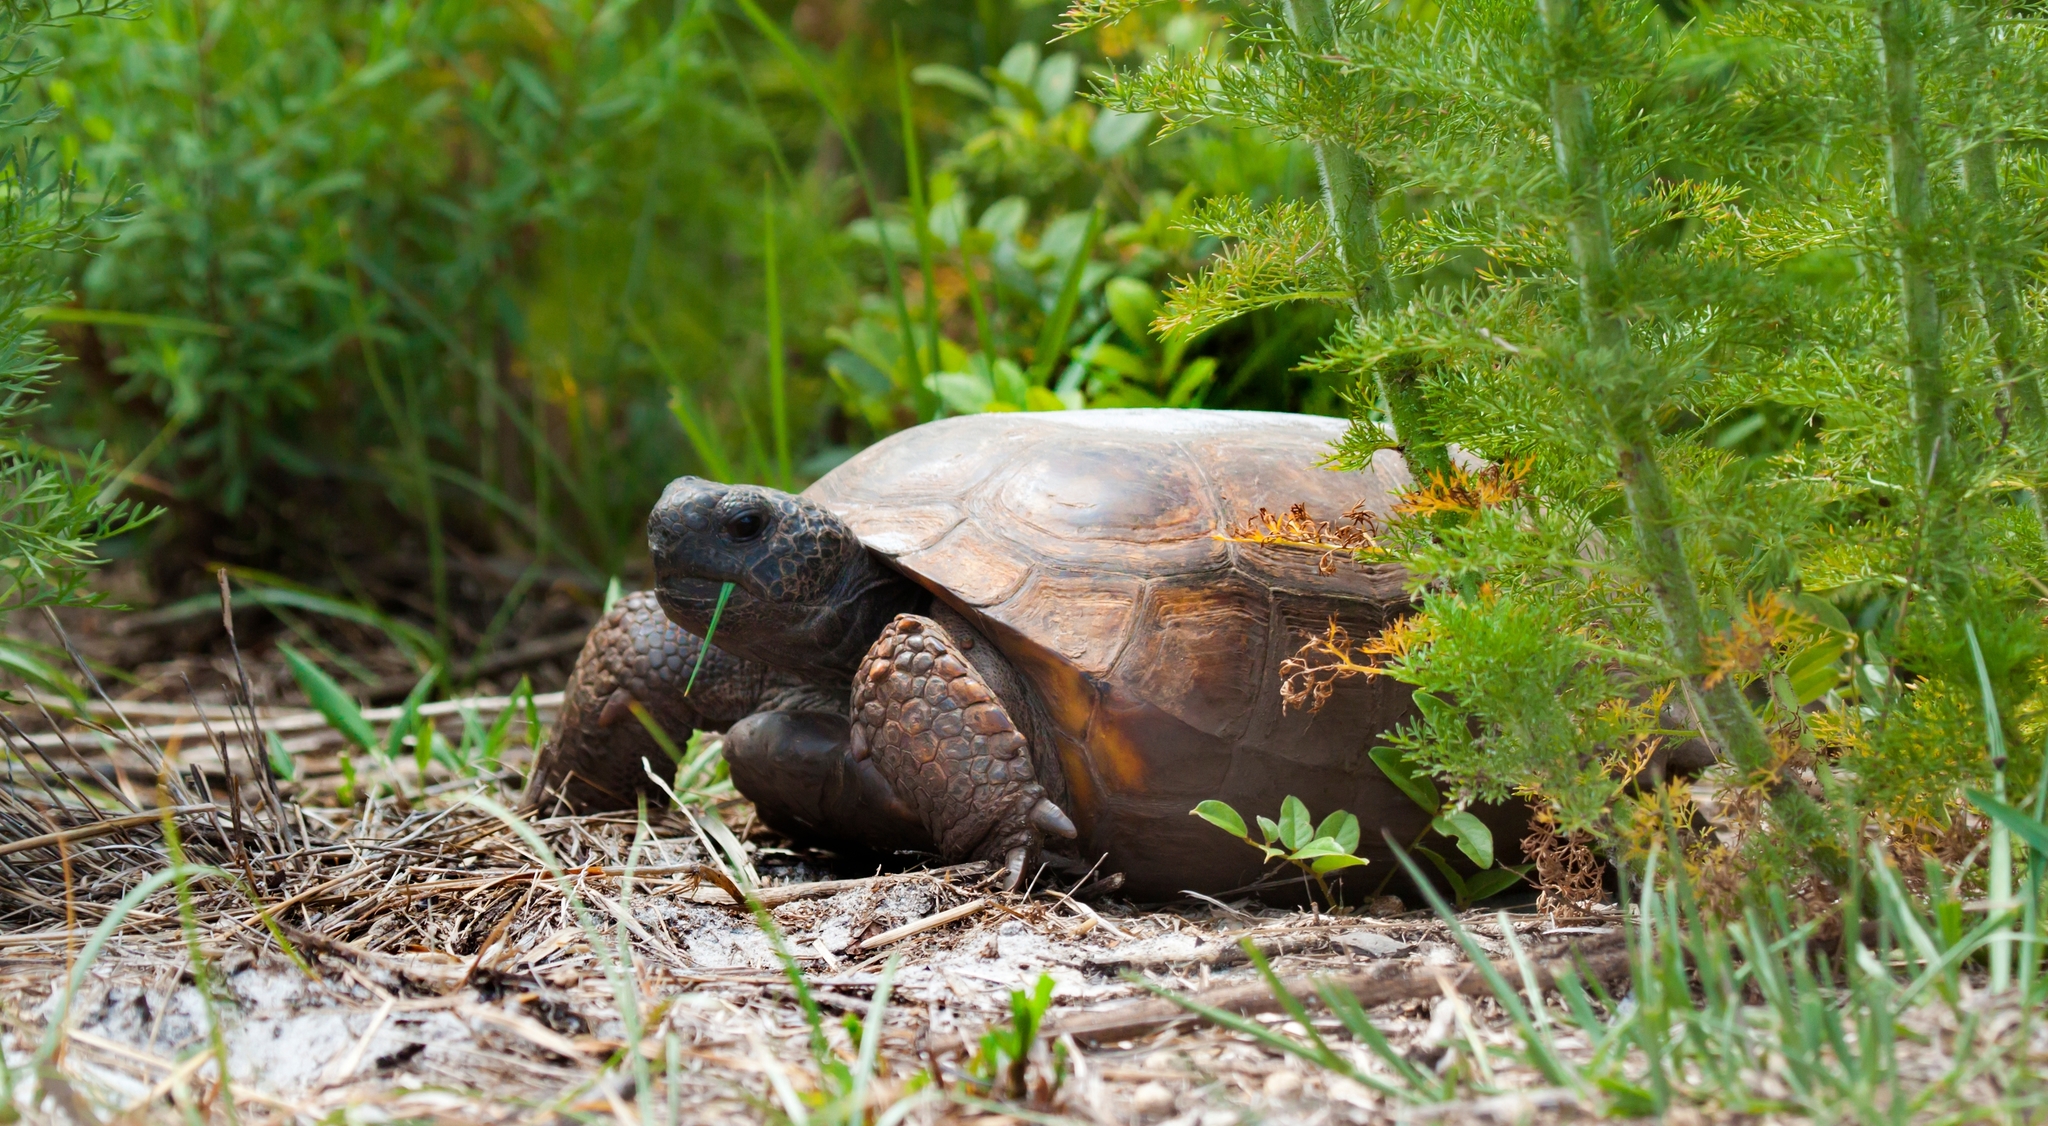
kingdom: Animalia
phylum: Chordata
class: Testudines
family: Testudinidae
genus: Gopherus
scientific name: Gopherus polyphemus
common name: Florida gopher tortoise
